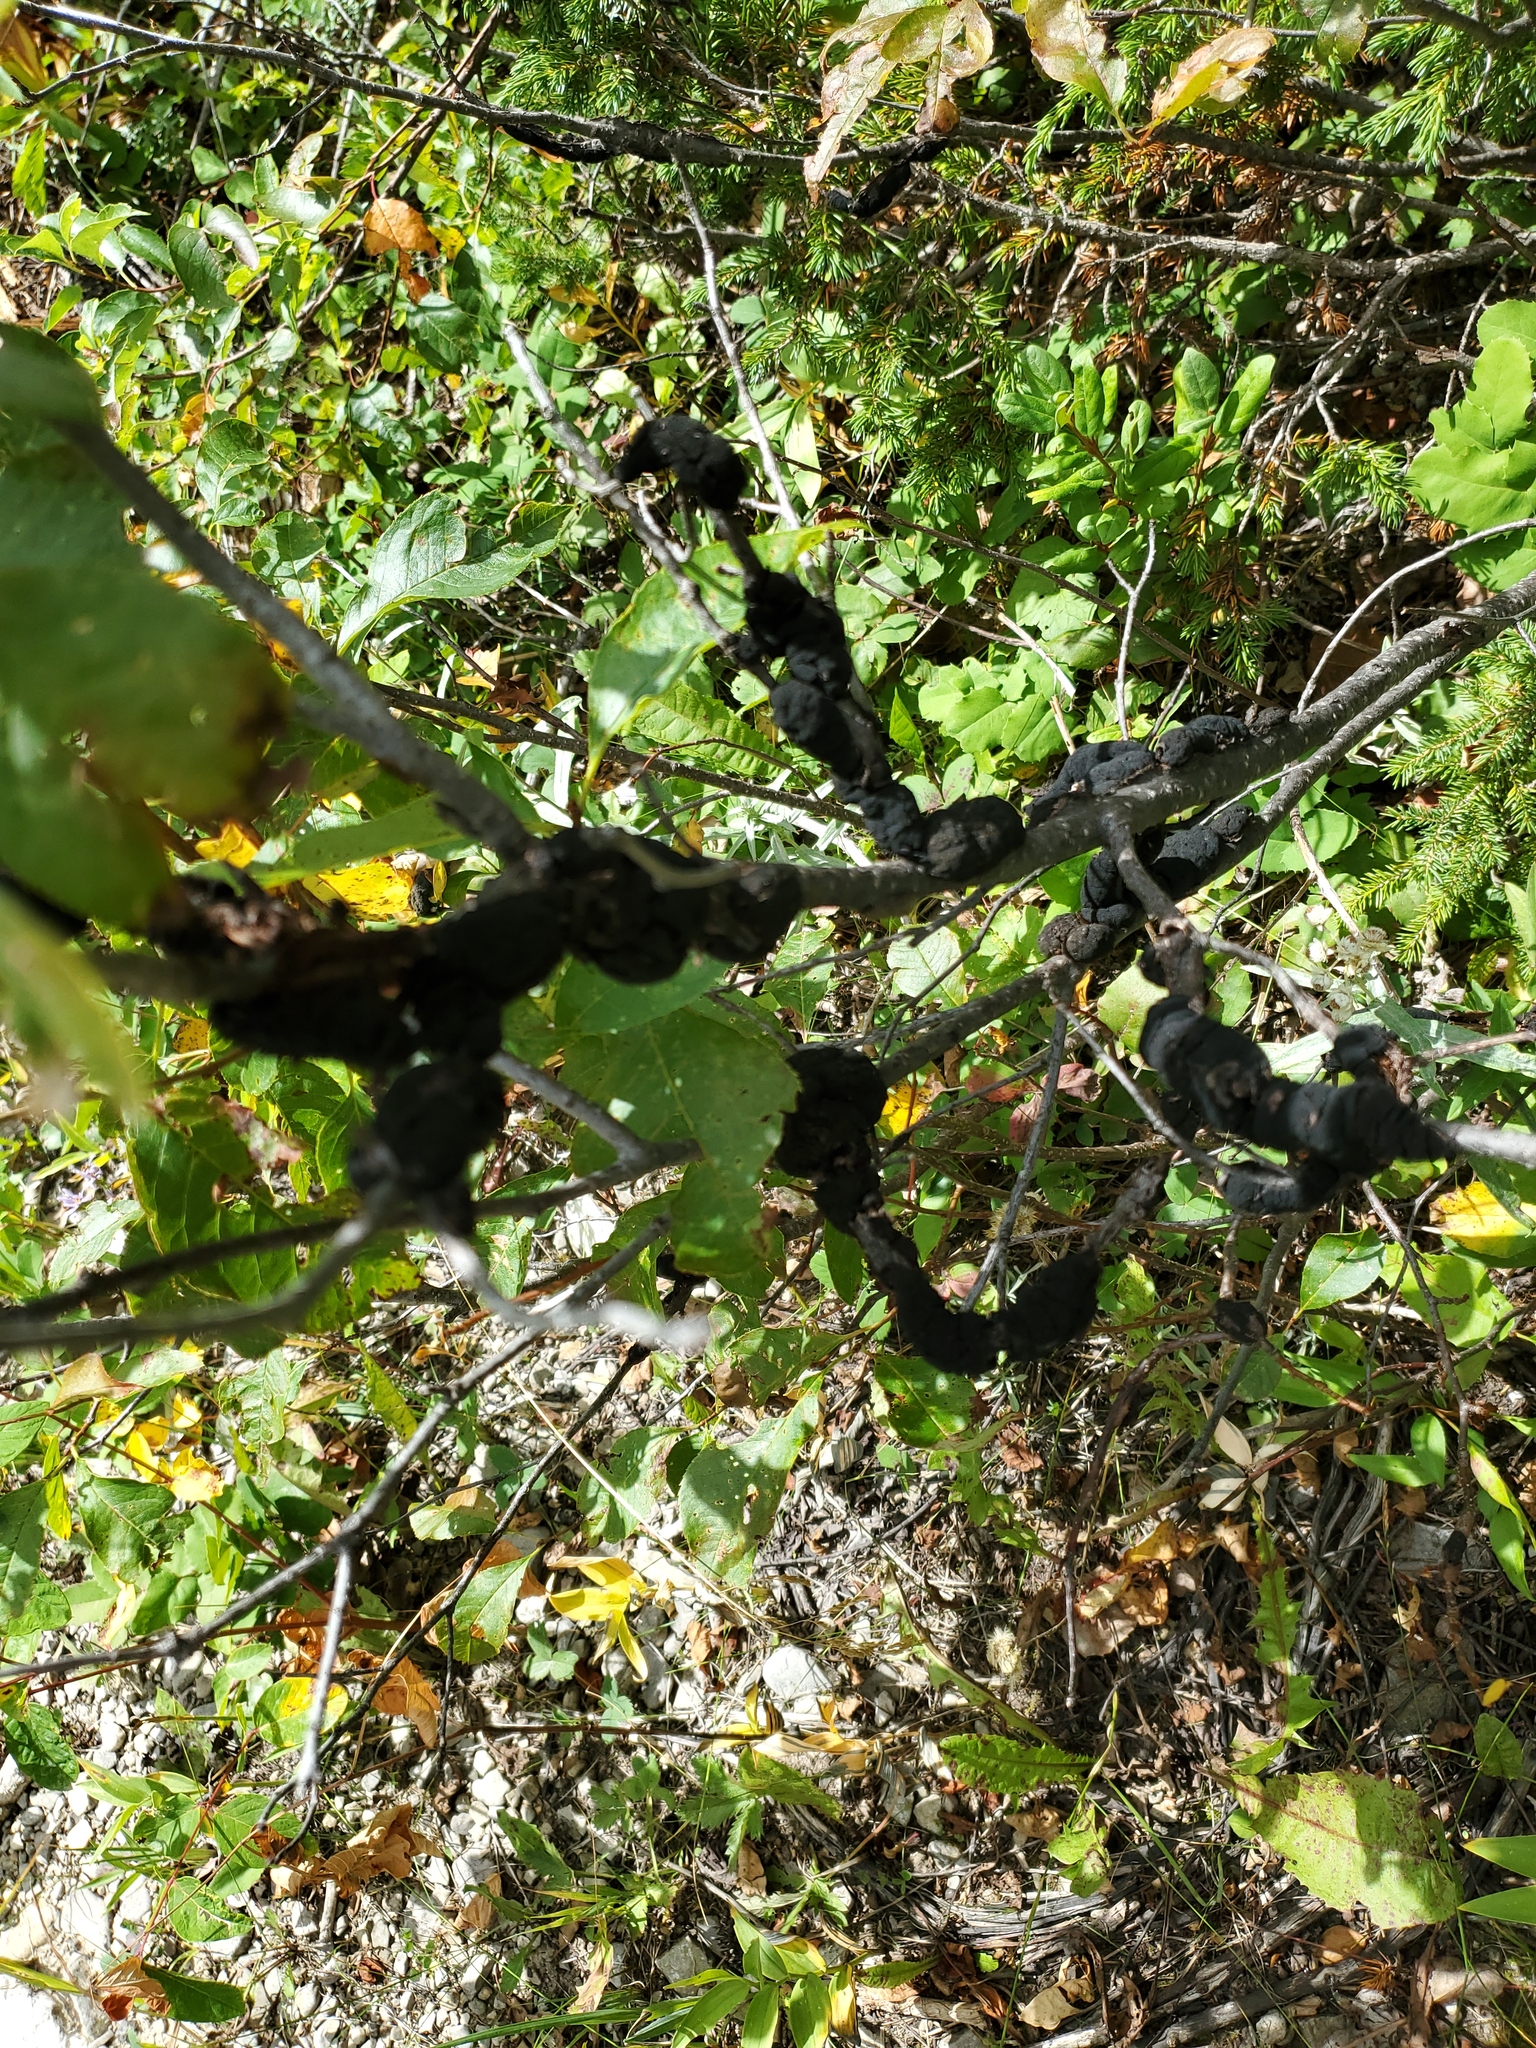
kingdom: Fungi
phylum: Ascomycota
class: Dothideomycetes
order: Venturiales
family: Venturiaceae
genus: Apiosporina
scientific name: Apiosporina morbosa
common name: Black knot
